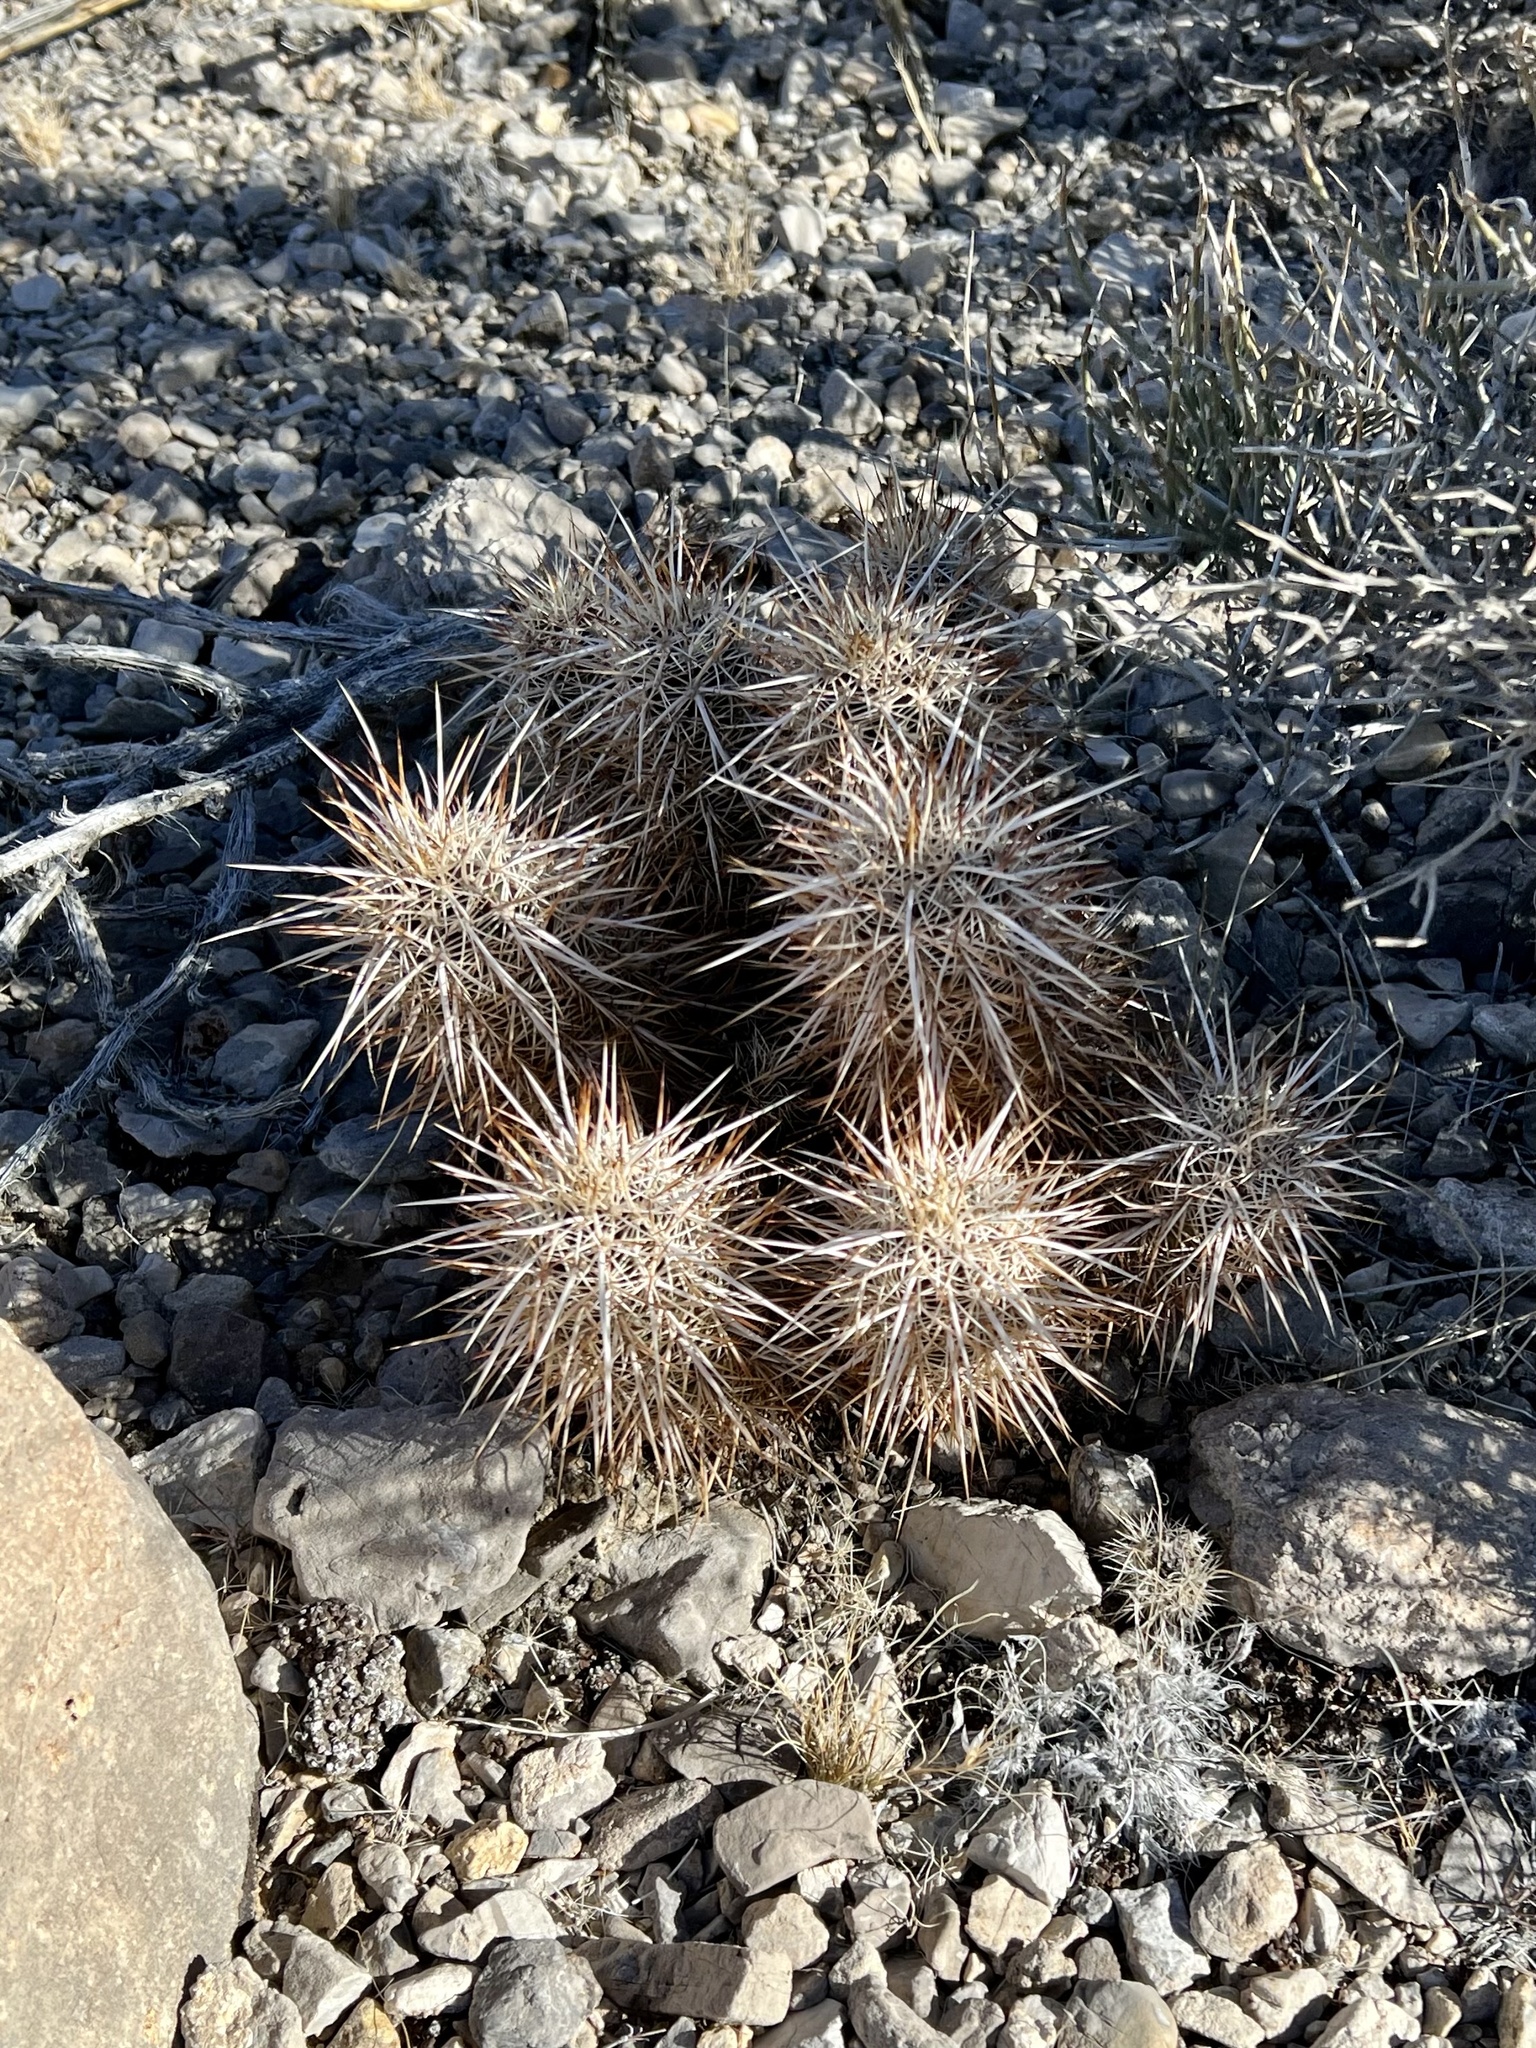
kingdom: Plantae
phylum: Tracheophyta
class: Magnoliopsida
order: Caryophyllales
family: Cactaceae
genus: Echinocereus
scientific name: Echinocereus engelmannii
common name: Engelmann's hedgehog cactus
